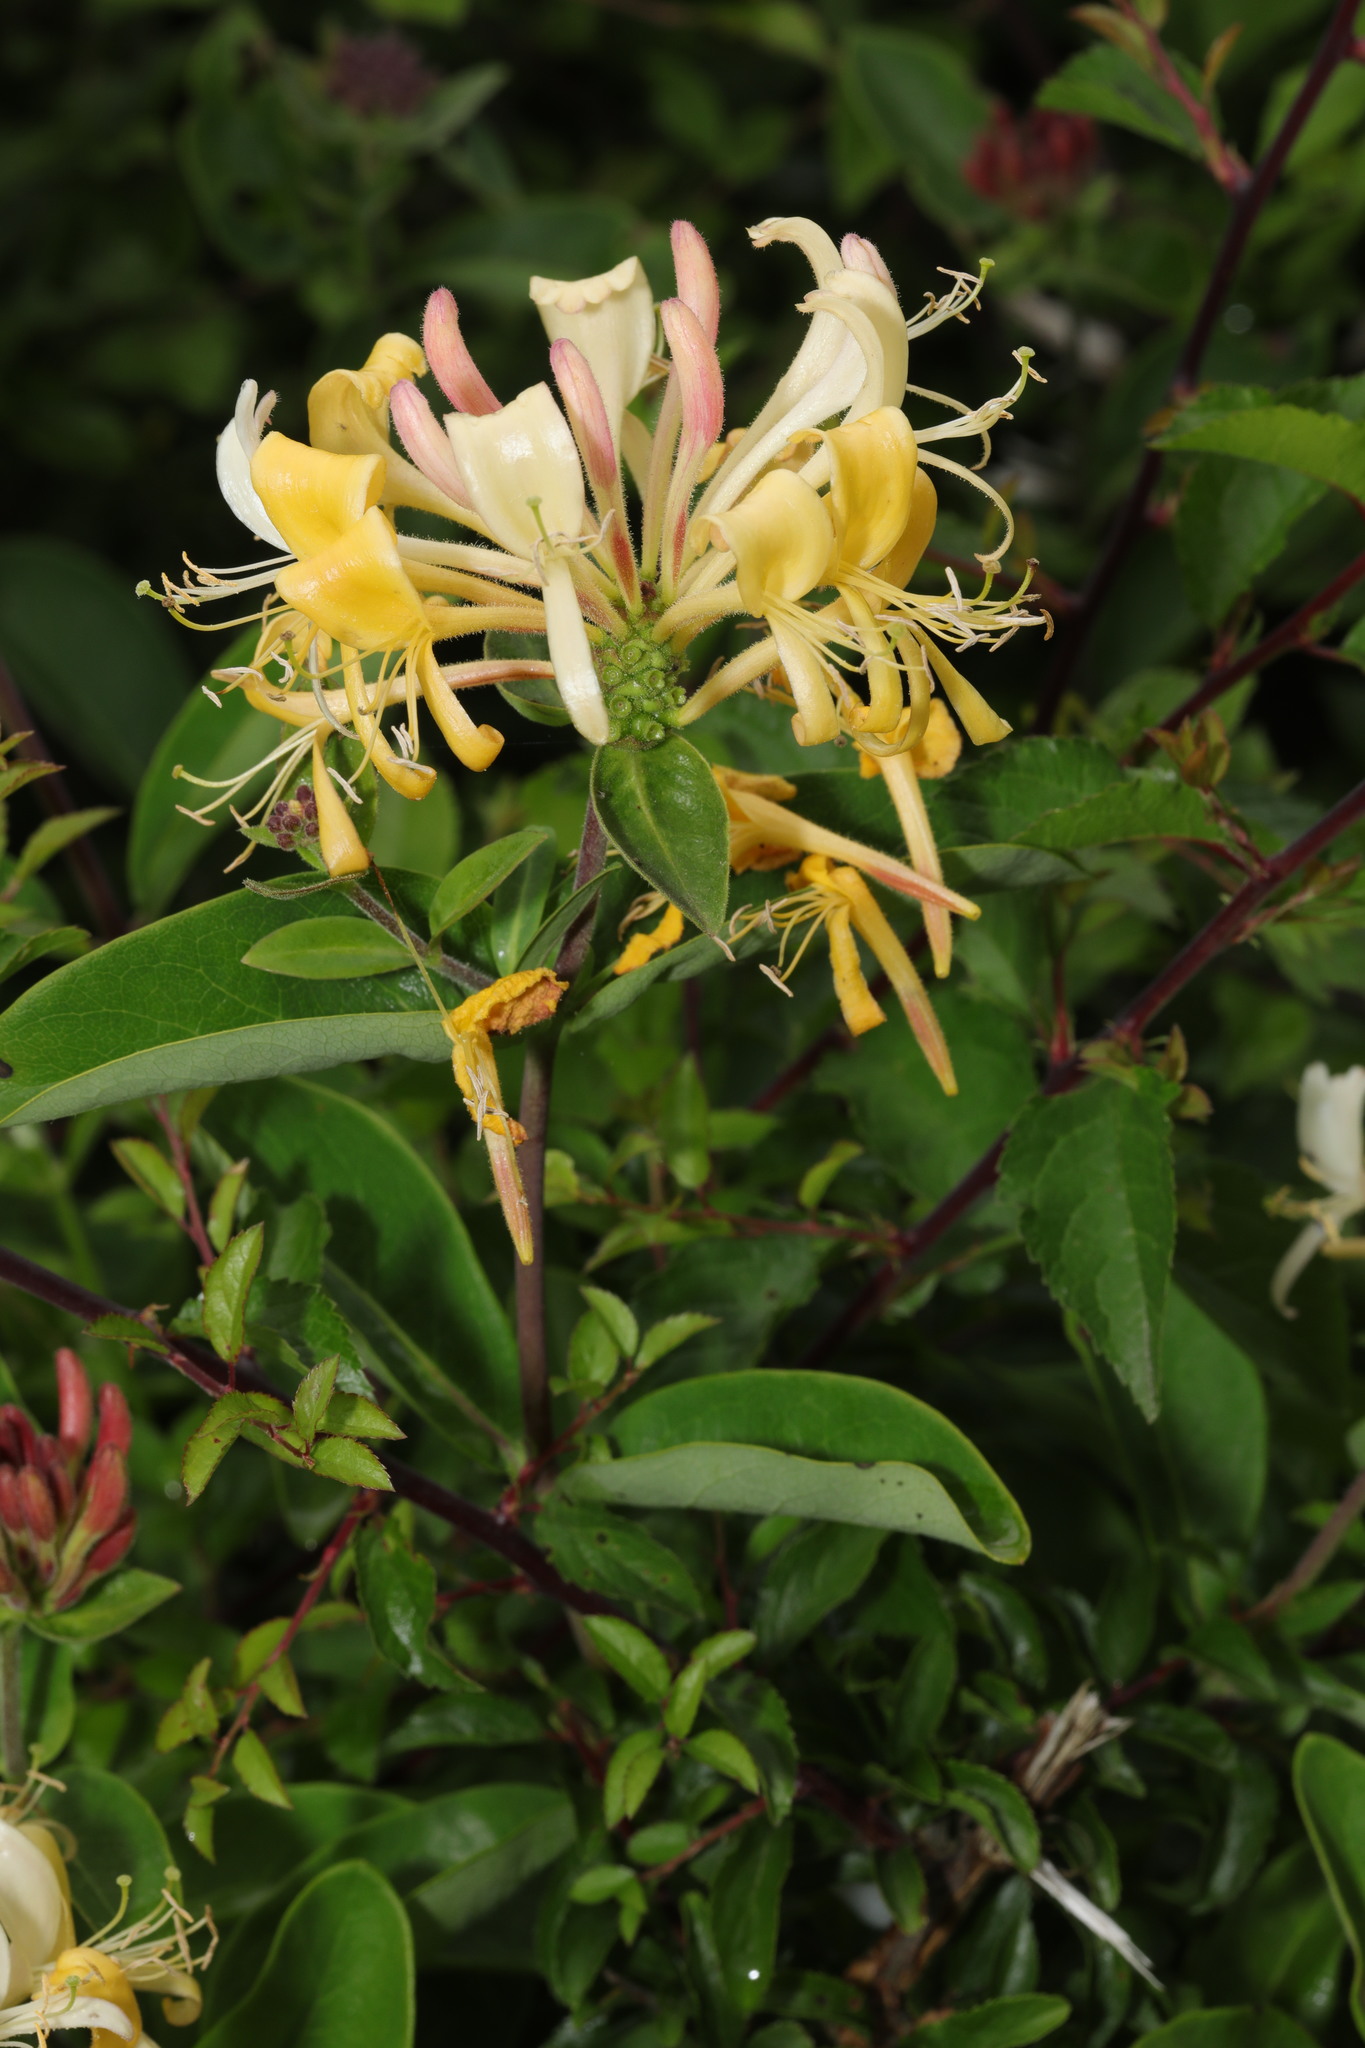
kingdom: Plantae
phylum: Tracheophyta
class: Magnoliopsida
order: Dipsacales
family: Caprifoliaceae
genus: Lonicera
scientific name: Lonicera periclymenum
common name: European honeysuckle
